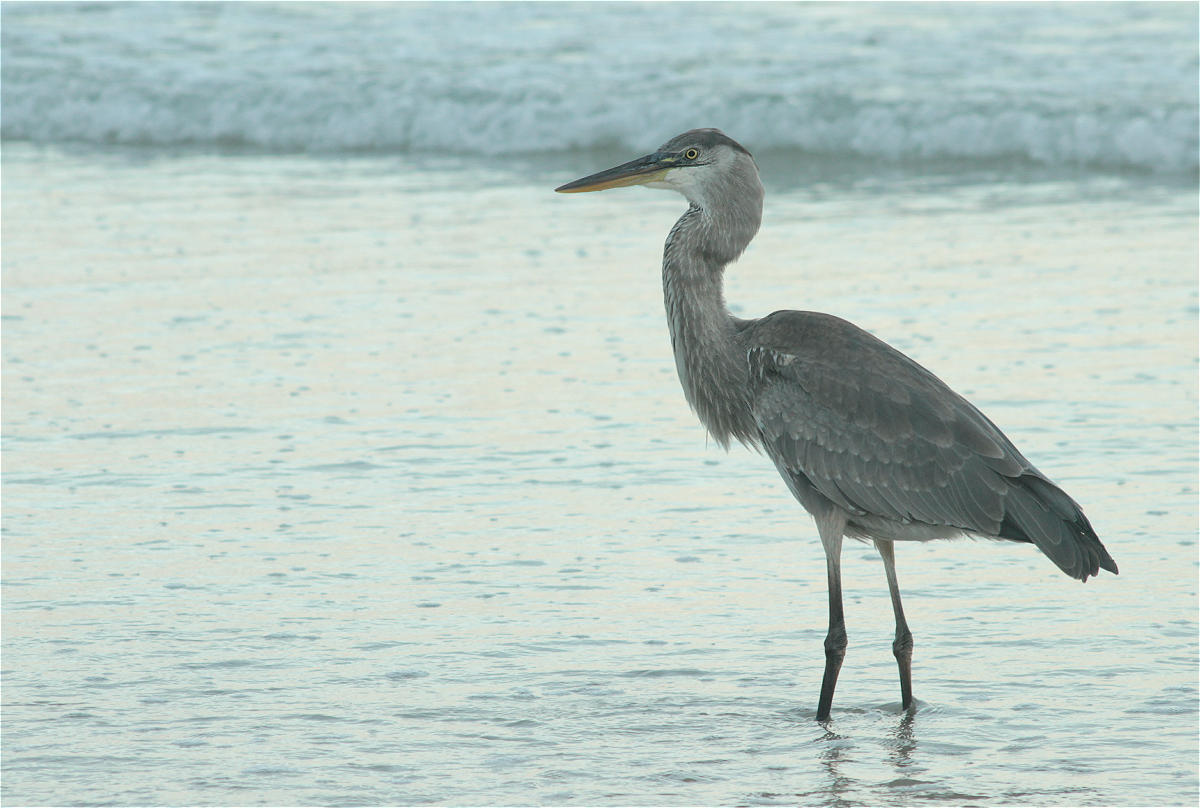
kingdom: Animalia
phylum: Chordata
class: Aves
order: Pelecaniformes
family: Ardeidae
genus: Ardea
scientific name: Ardea herodias
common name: Great blue heron
